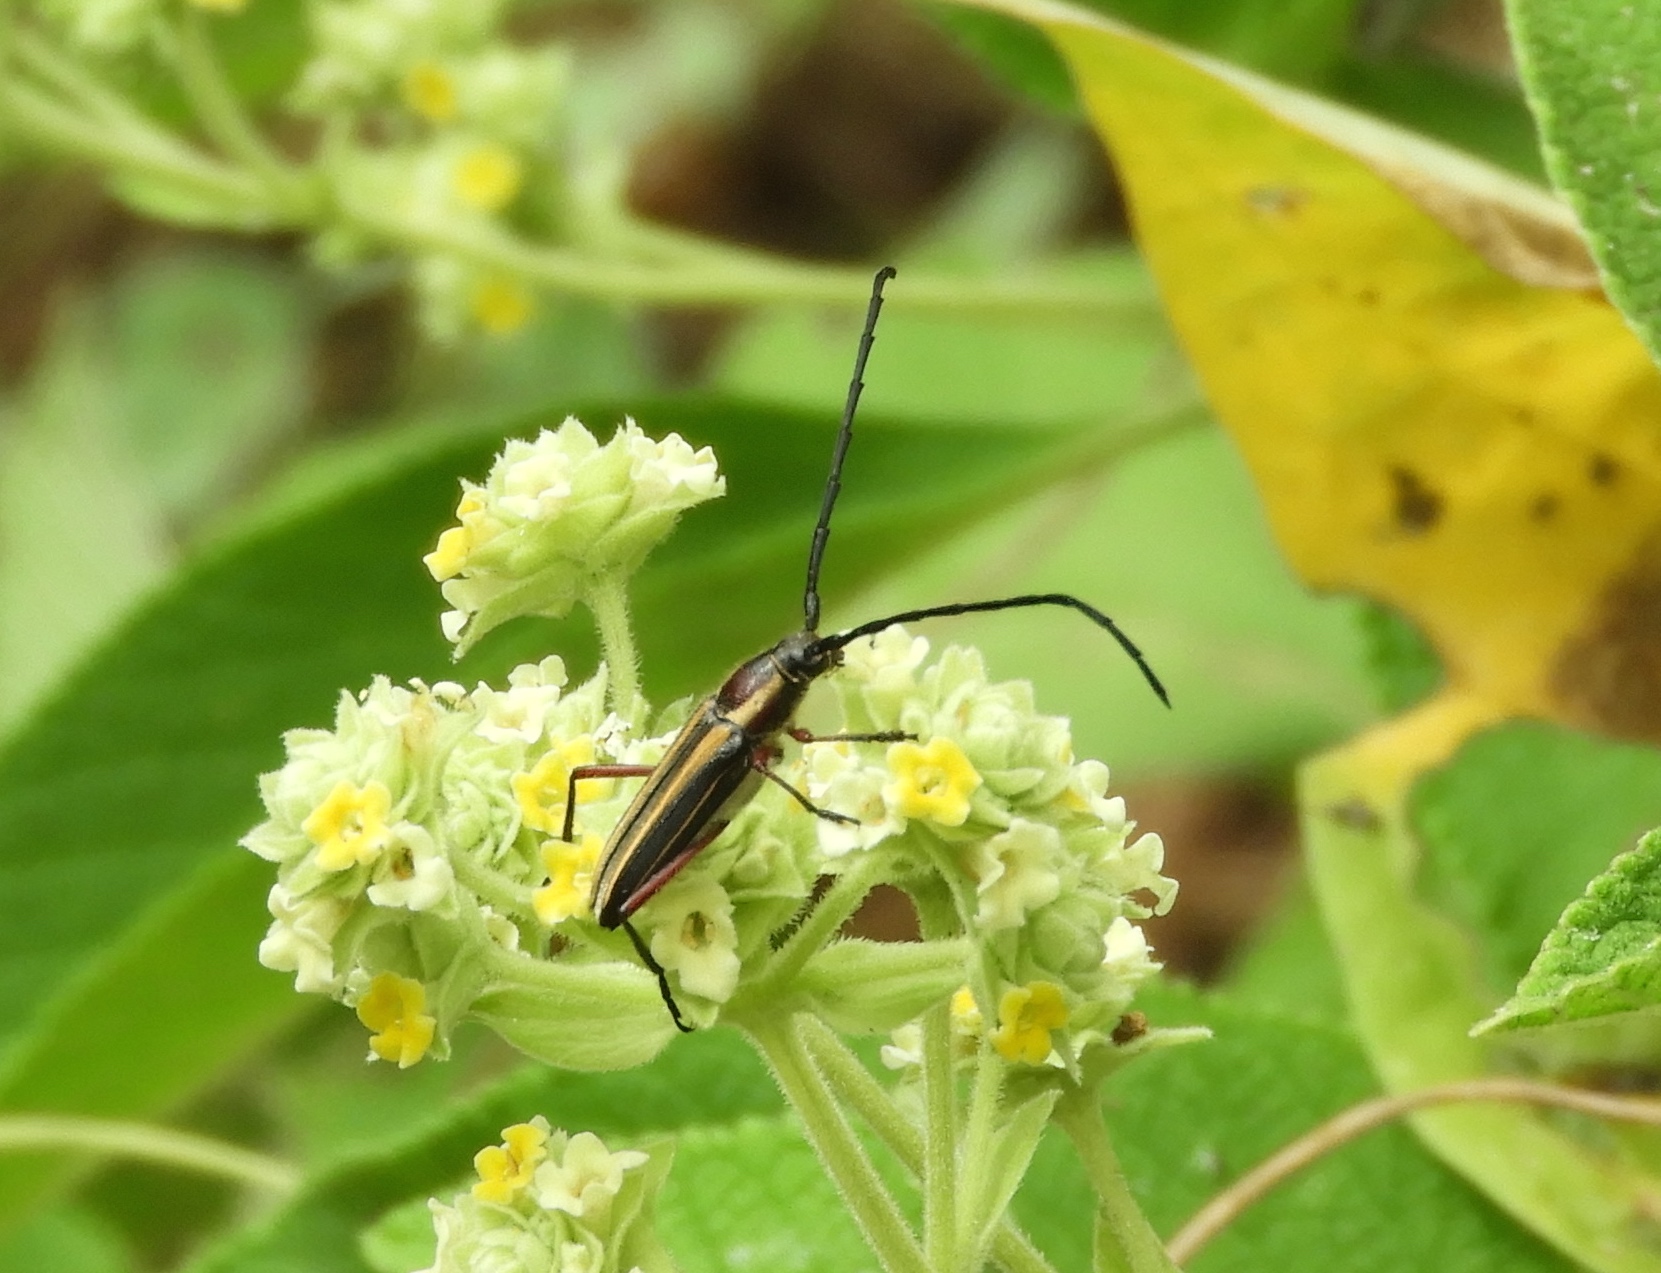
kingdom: Animalia
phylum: Arthropoda
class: Insecta
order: Coleoptera
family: Cerambycidae
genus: Sphaenothecus
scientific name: Sphaenothecus bilineatus
